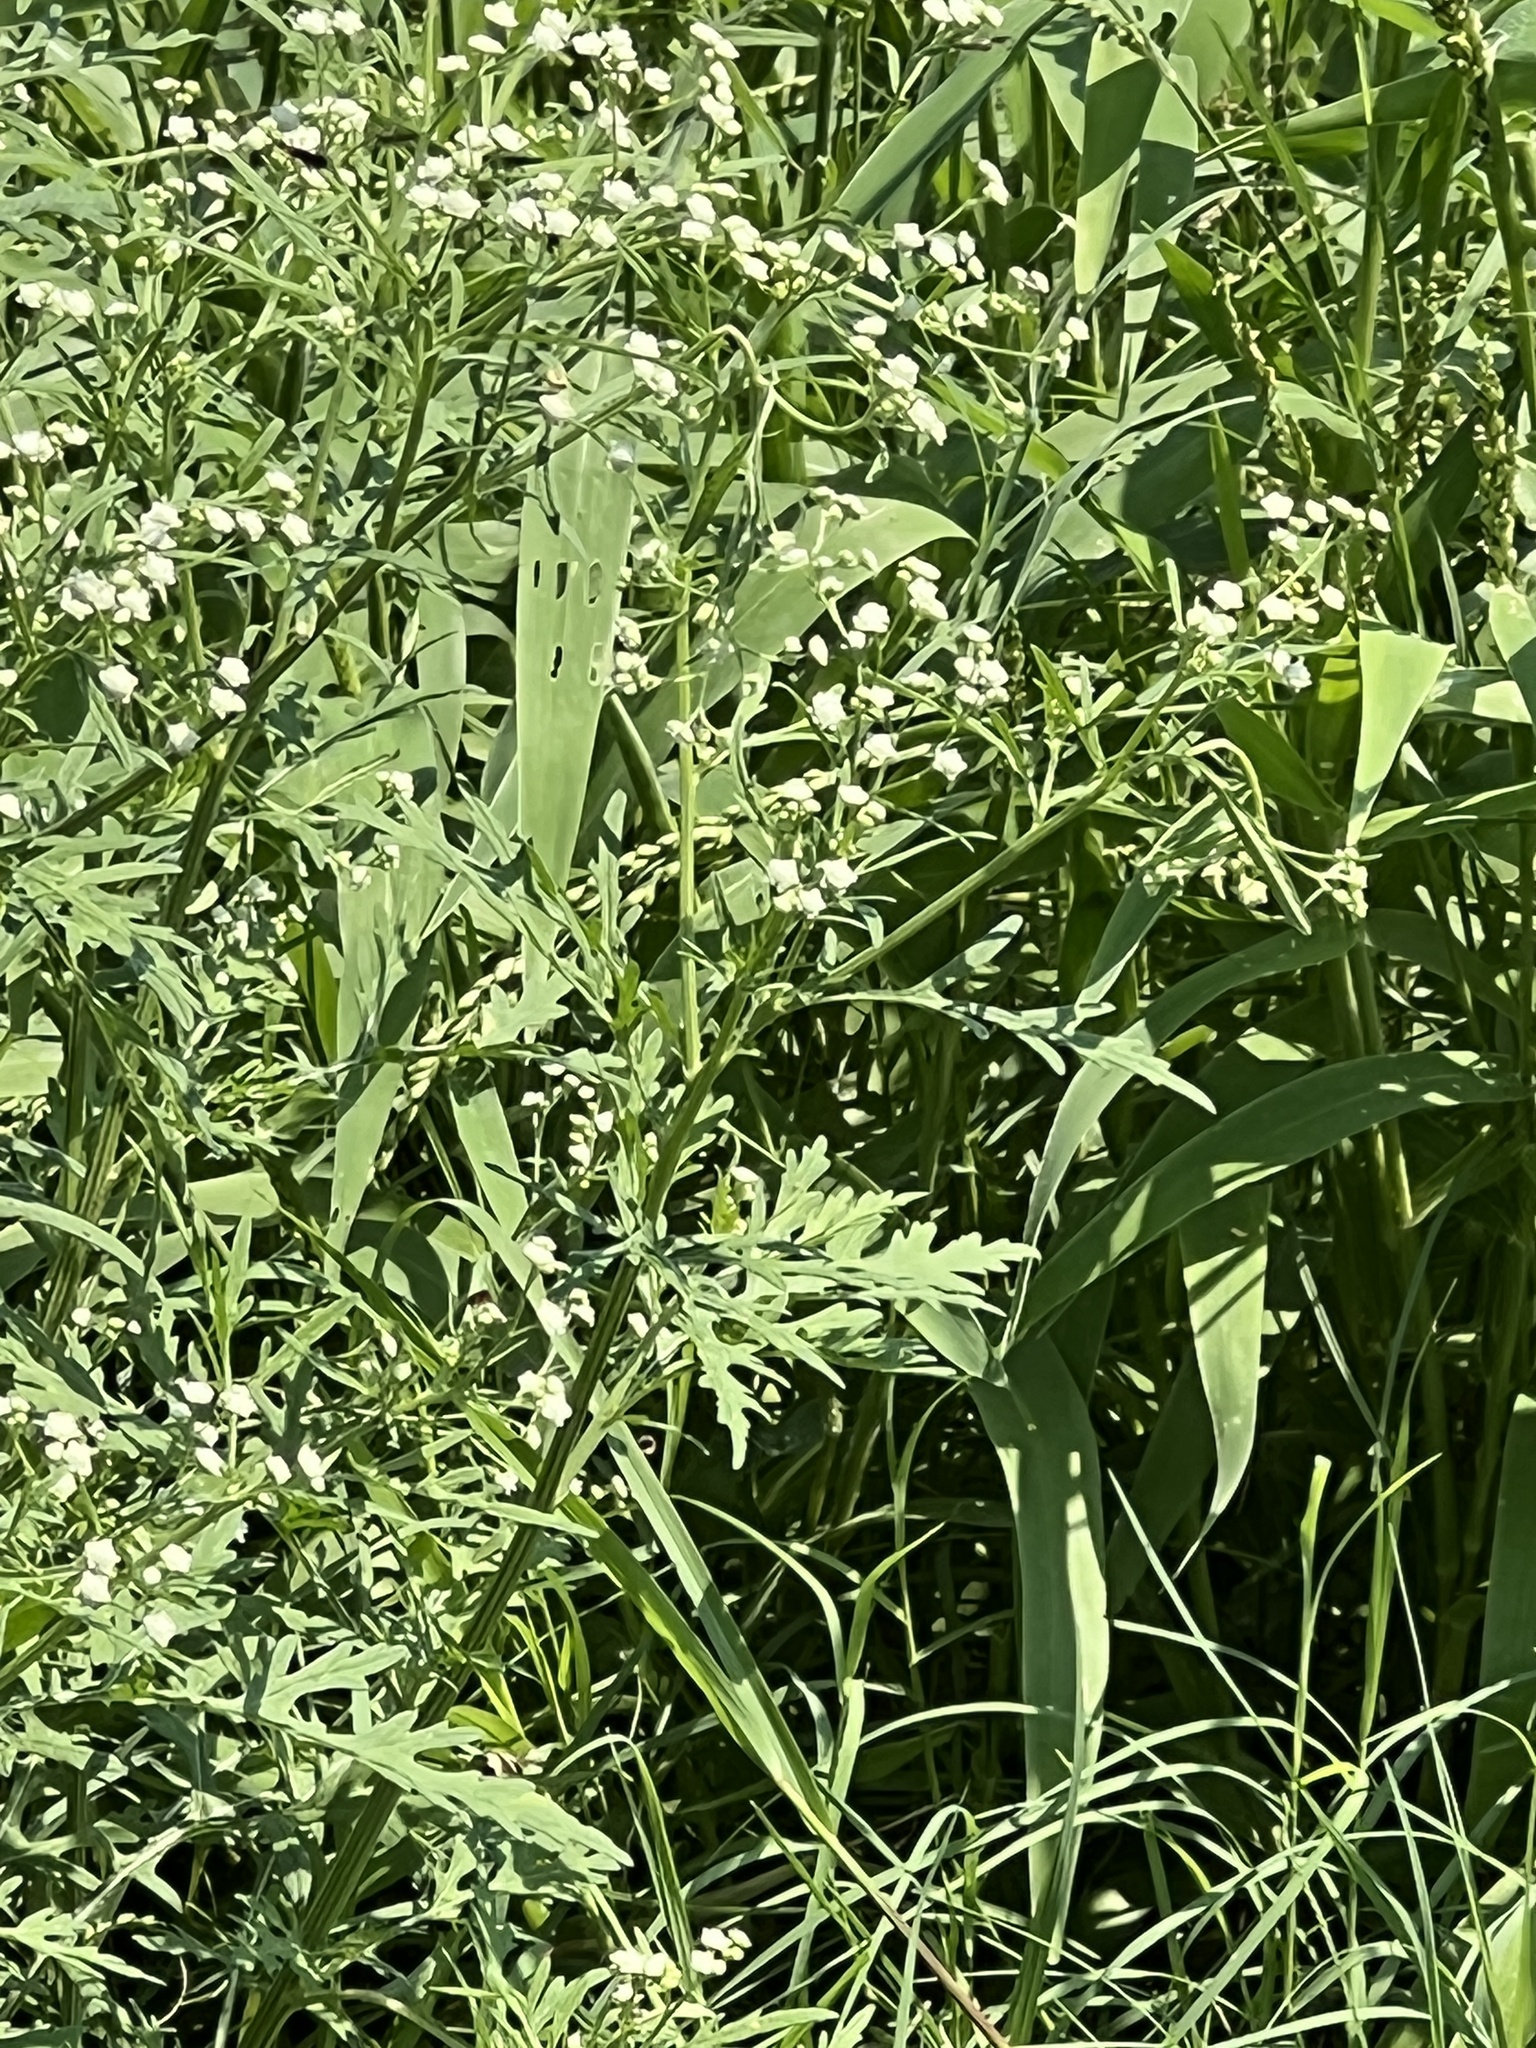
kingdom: Plantae
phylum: Tracheophyta
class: Magnoliopsida
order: Asterales
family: Asteraceae
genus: Parthenium
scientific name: Parthenium hysterophorus
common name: Santa maria feverfew
